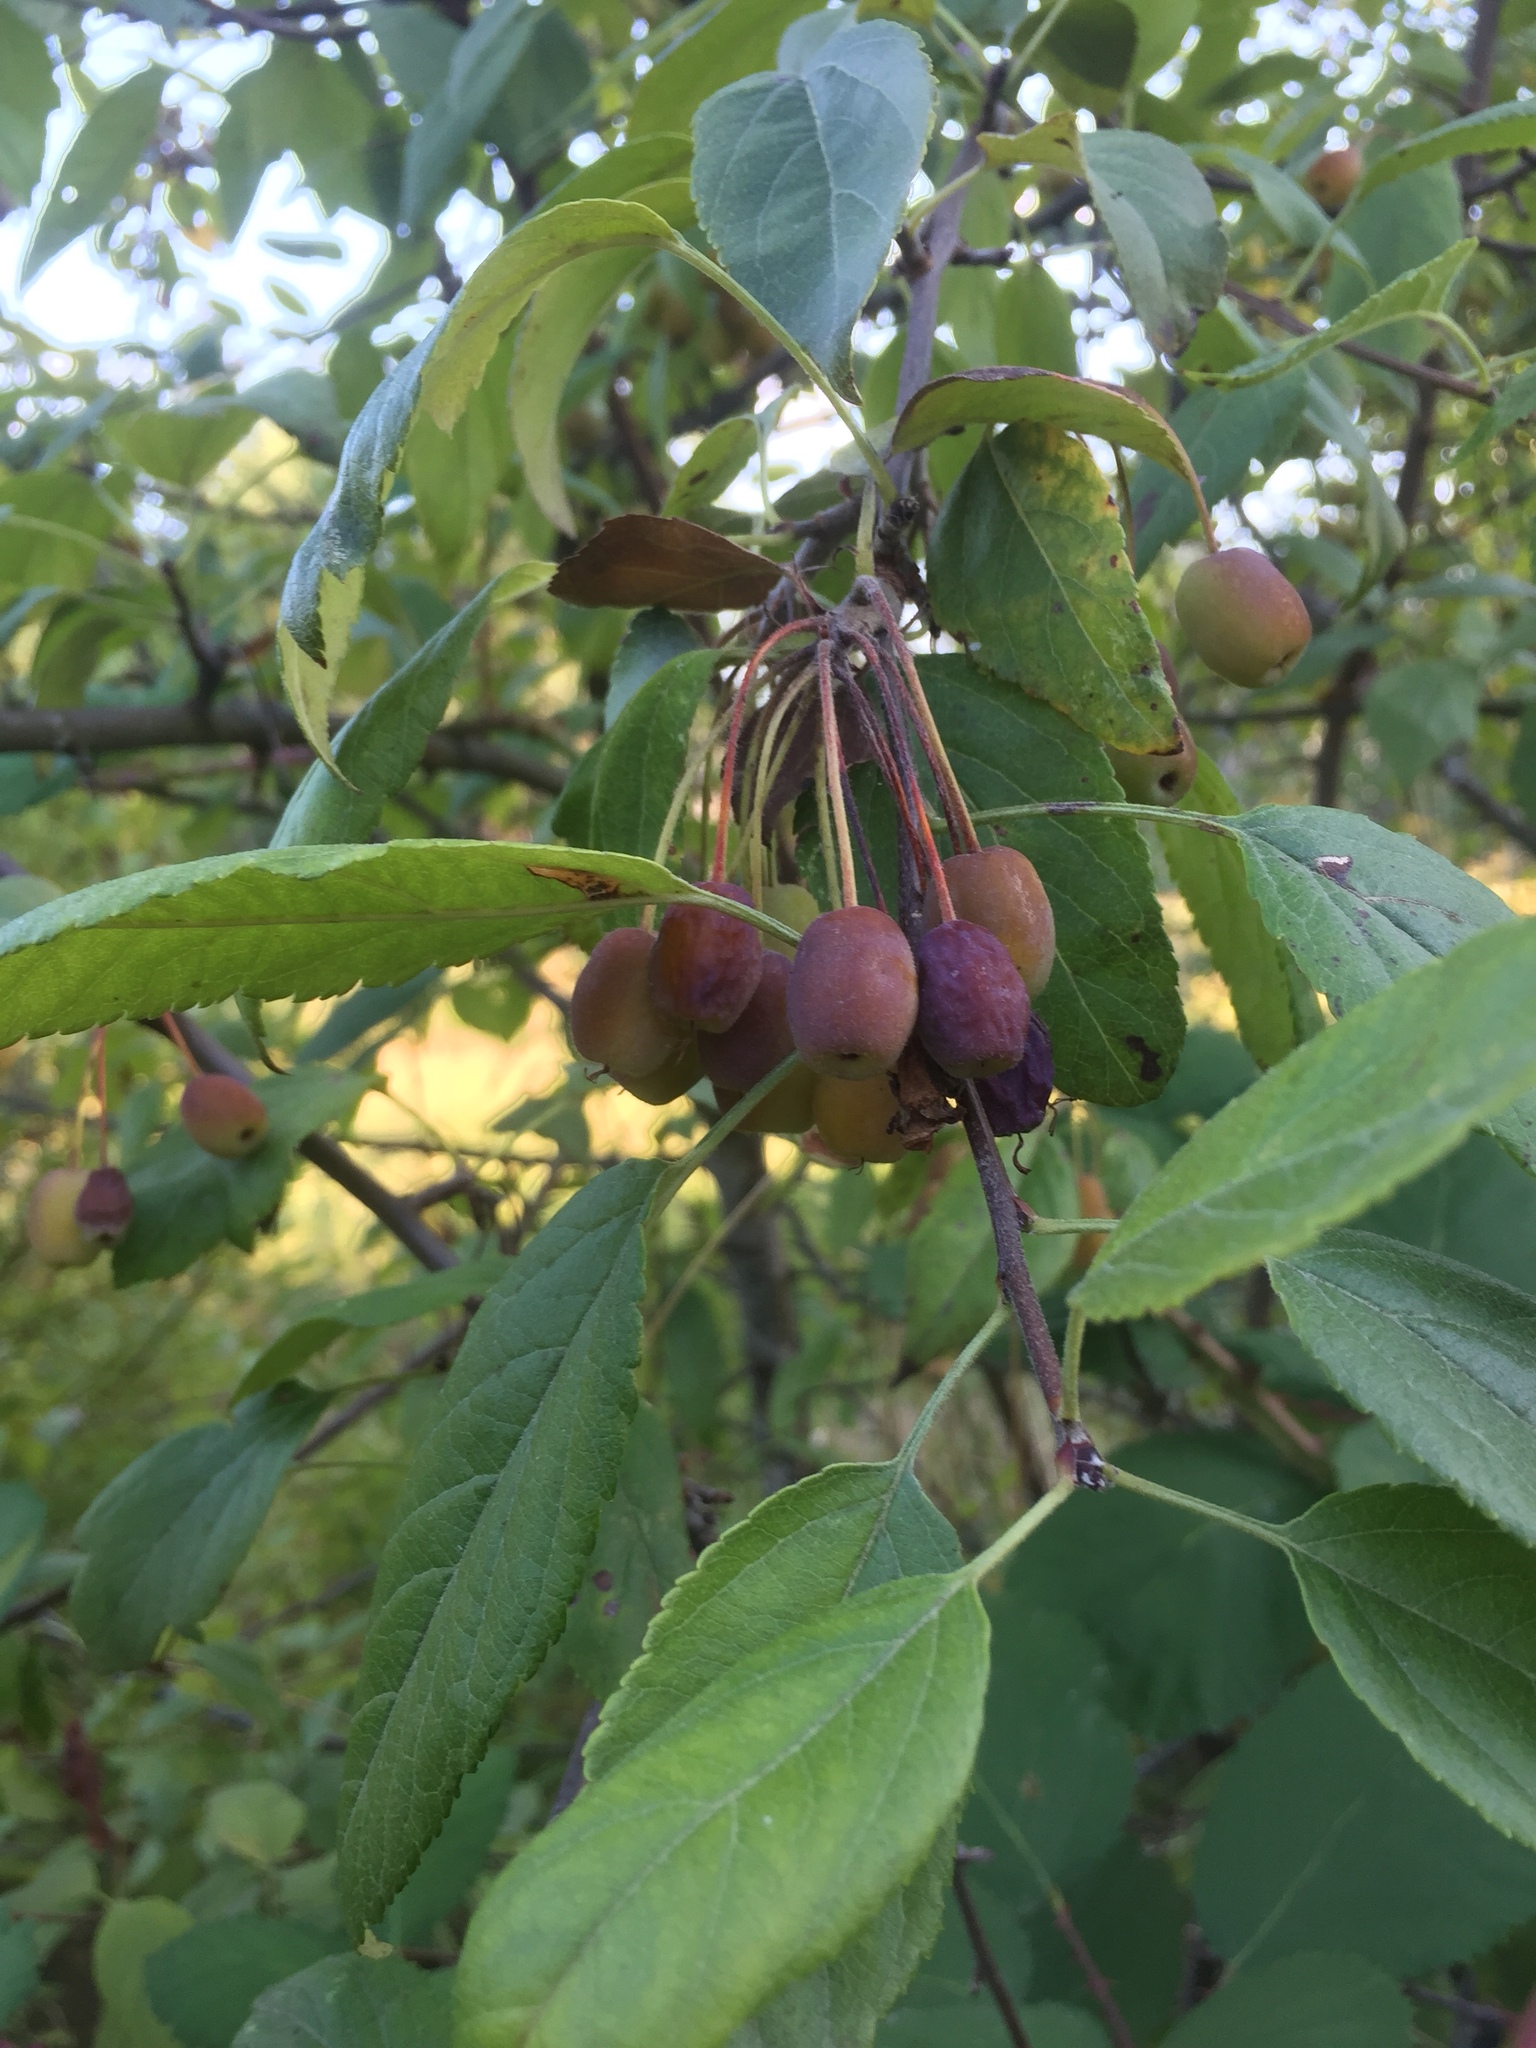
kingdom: Plantae
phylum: Tracheophyta
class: Magnoliopsida
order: Rosales
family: Rosaceae
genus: Malus
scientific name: Malus fusca
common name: Oregon crab apple
